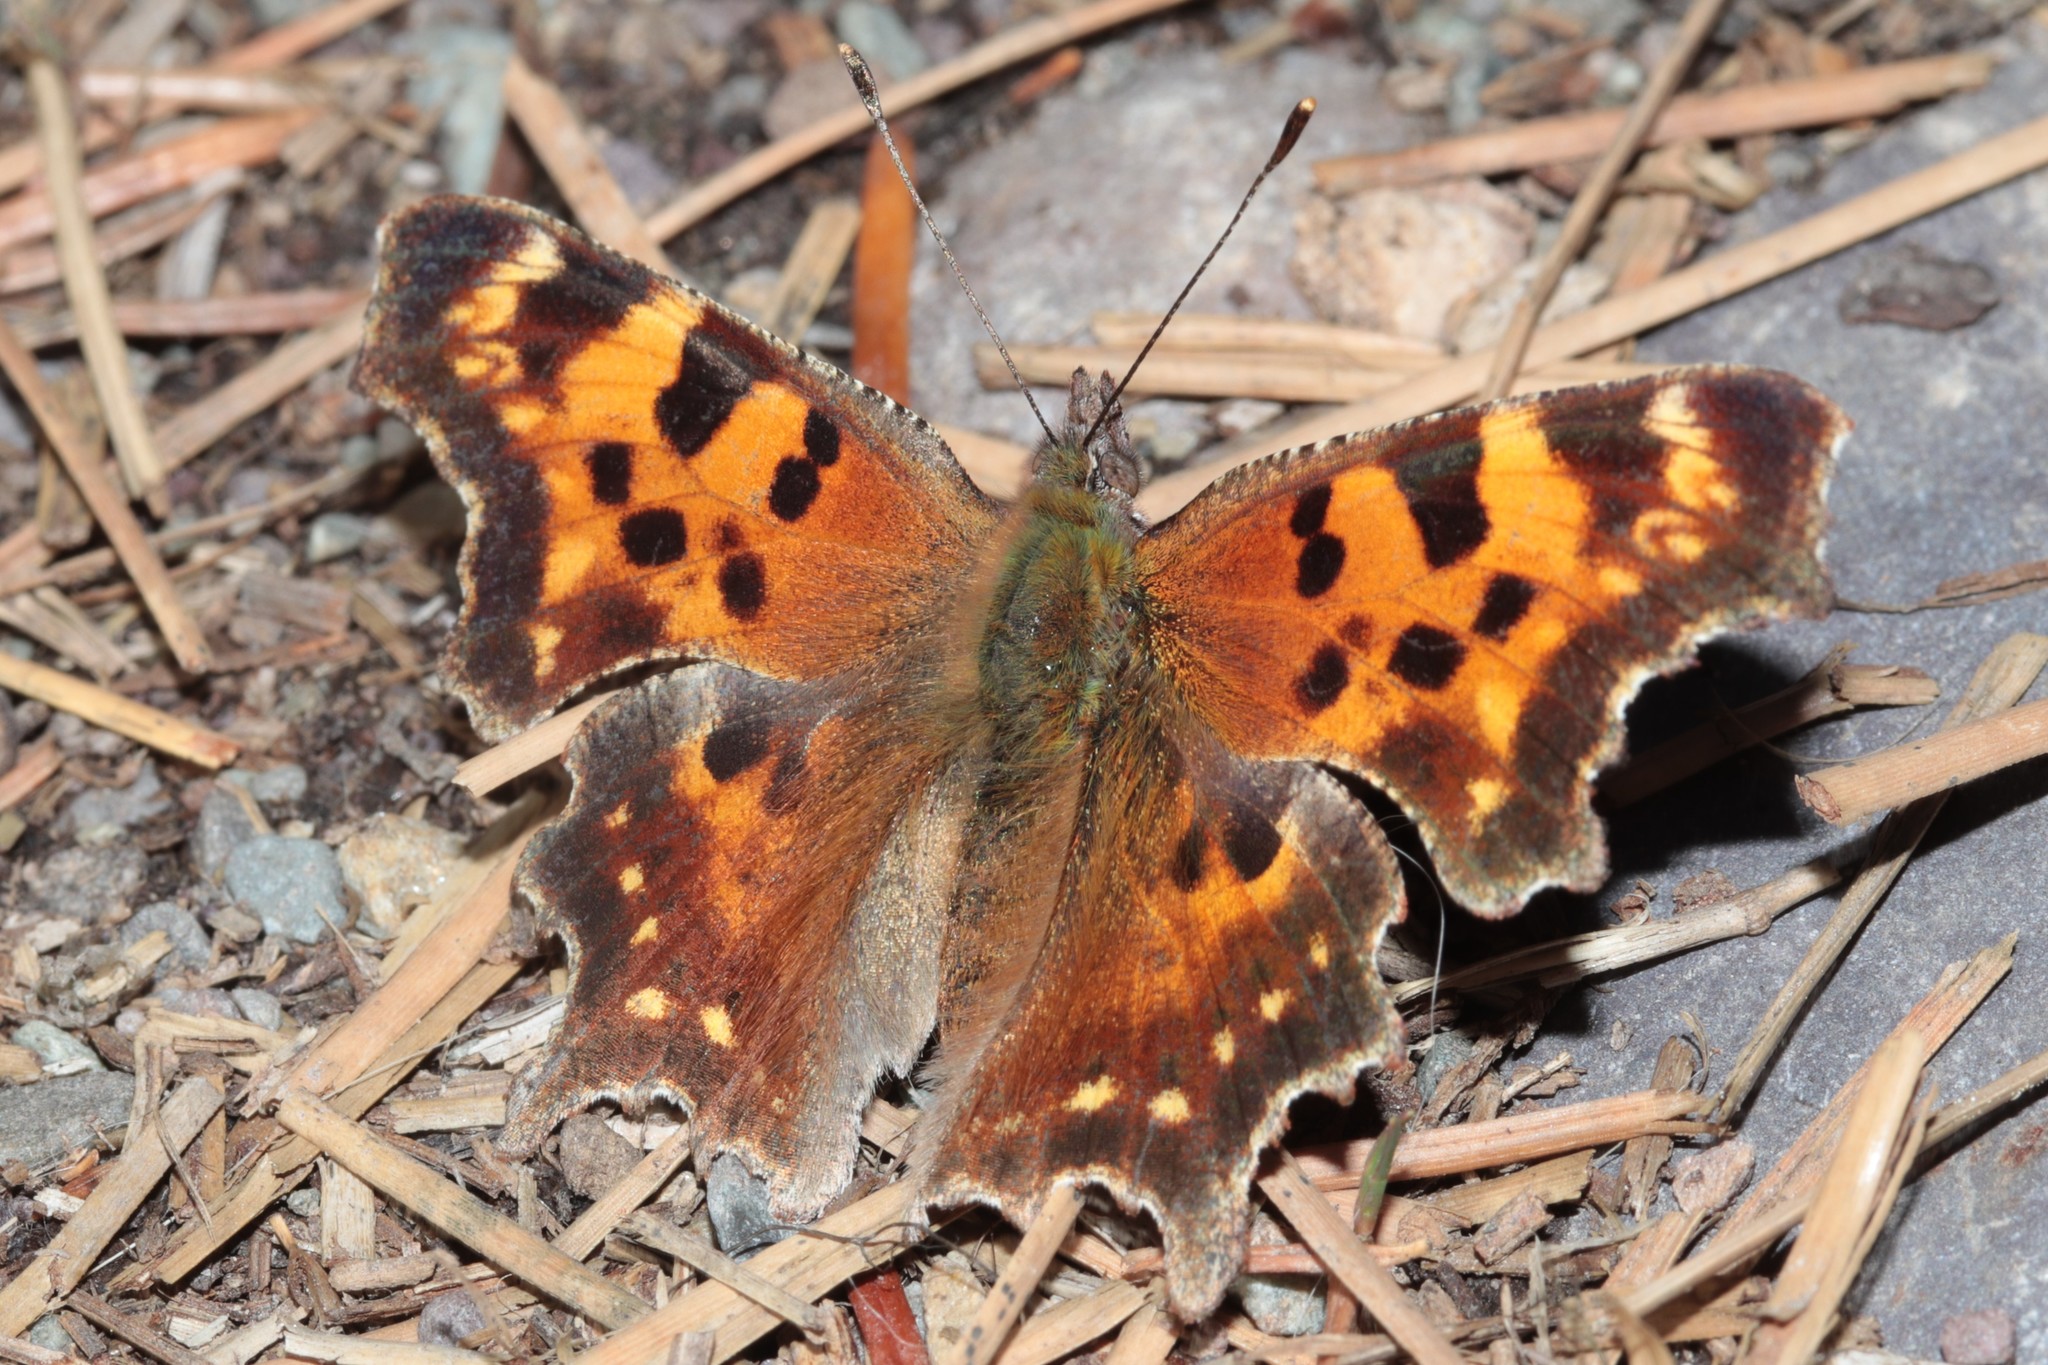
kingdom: Animalia
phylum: Arthropoda
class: Insecta
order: Lepidoptera
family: Nymphalidae
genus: Polygonia
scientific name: Polygonia faunus
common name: Green comma
